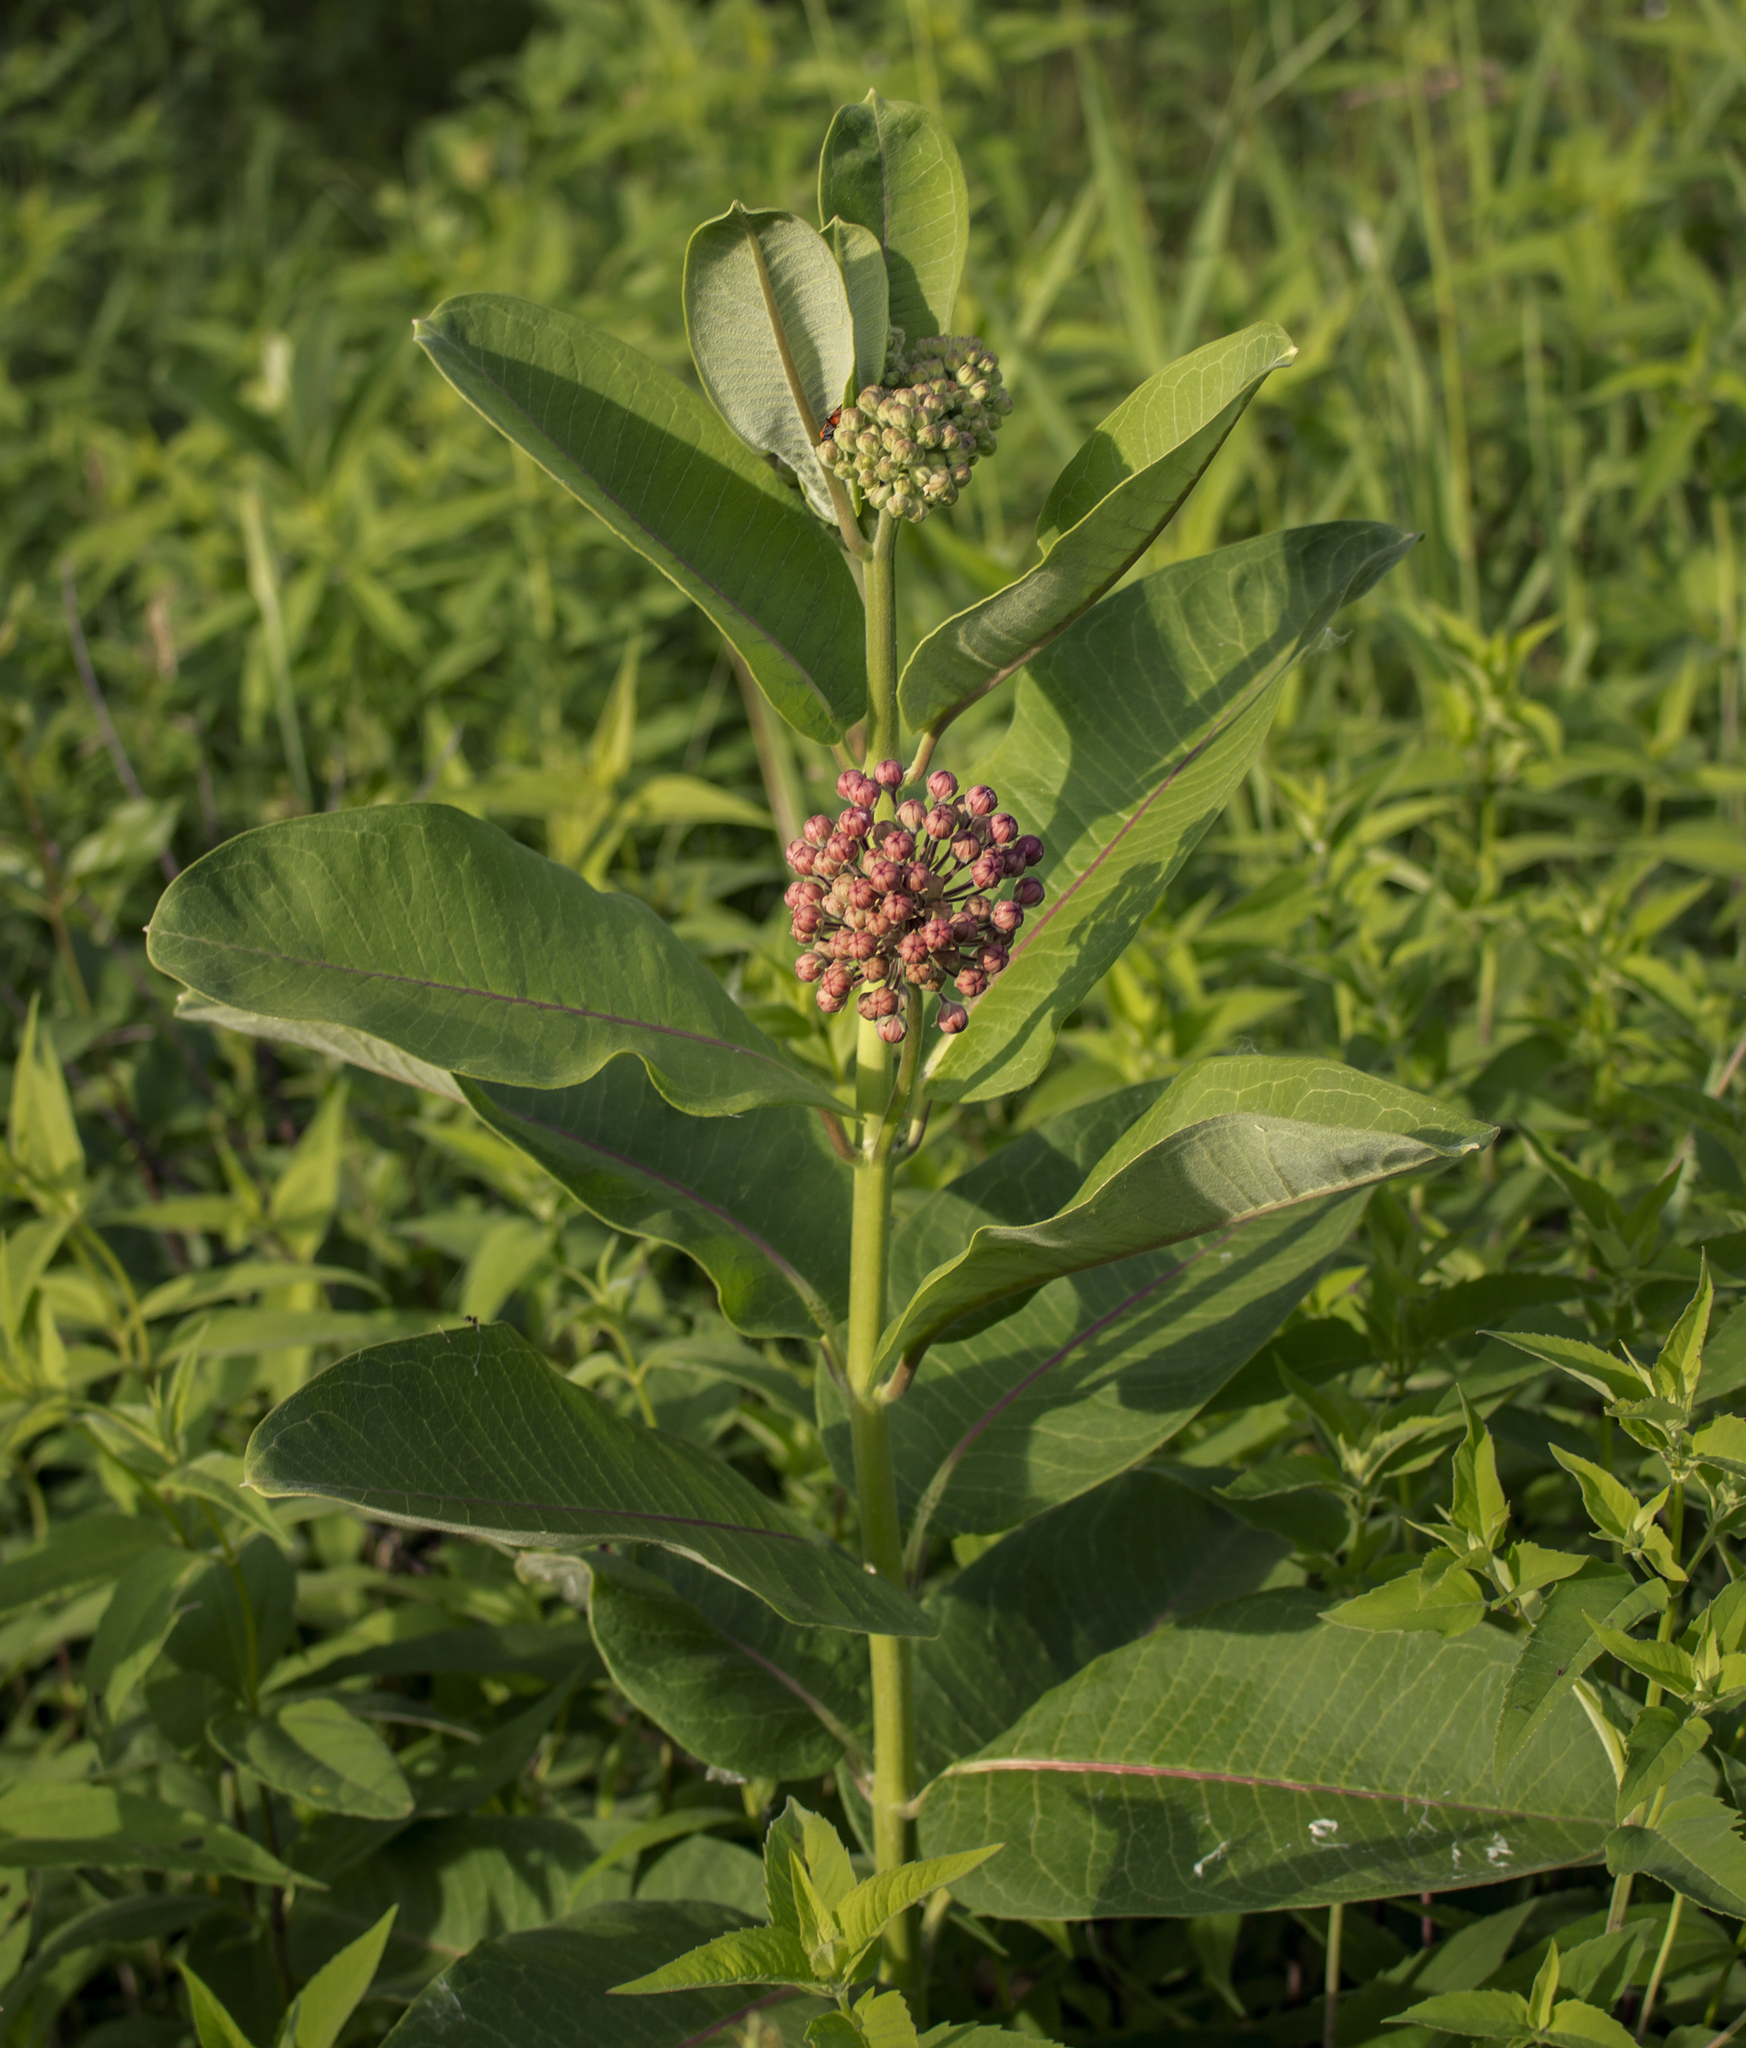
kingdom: Plantae
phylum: Tracheophyta
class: Magnoliopsida
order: Gentianales
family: Apocynaceae
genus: Asclepias
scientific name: Asclepias syriaca
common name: Common milkweed
